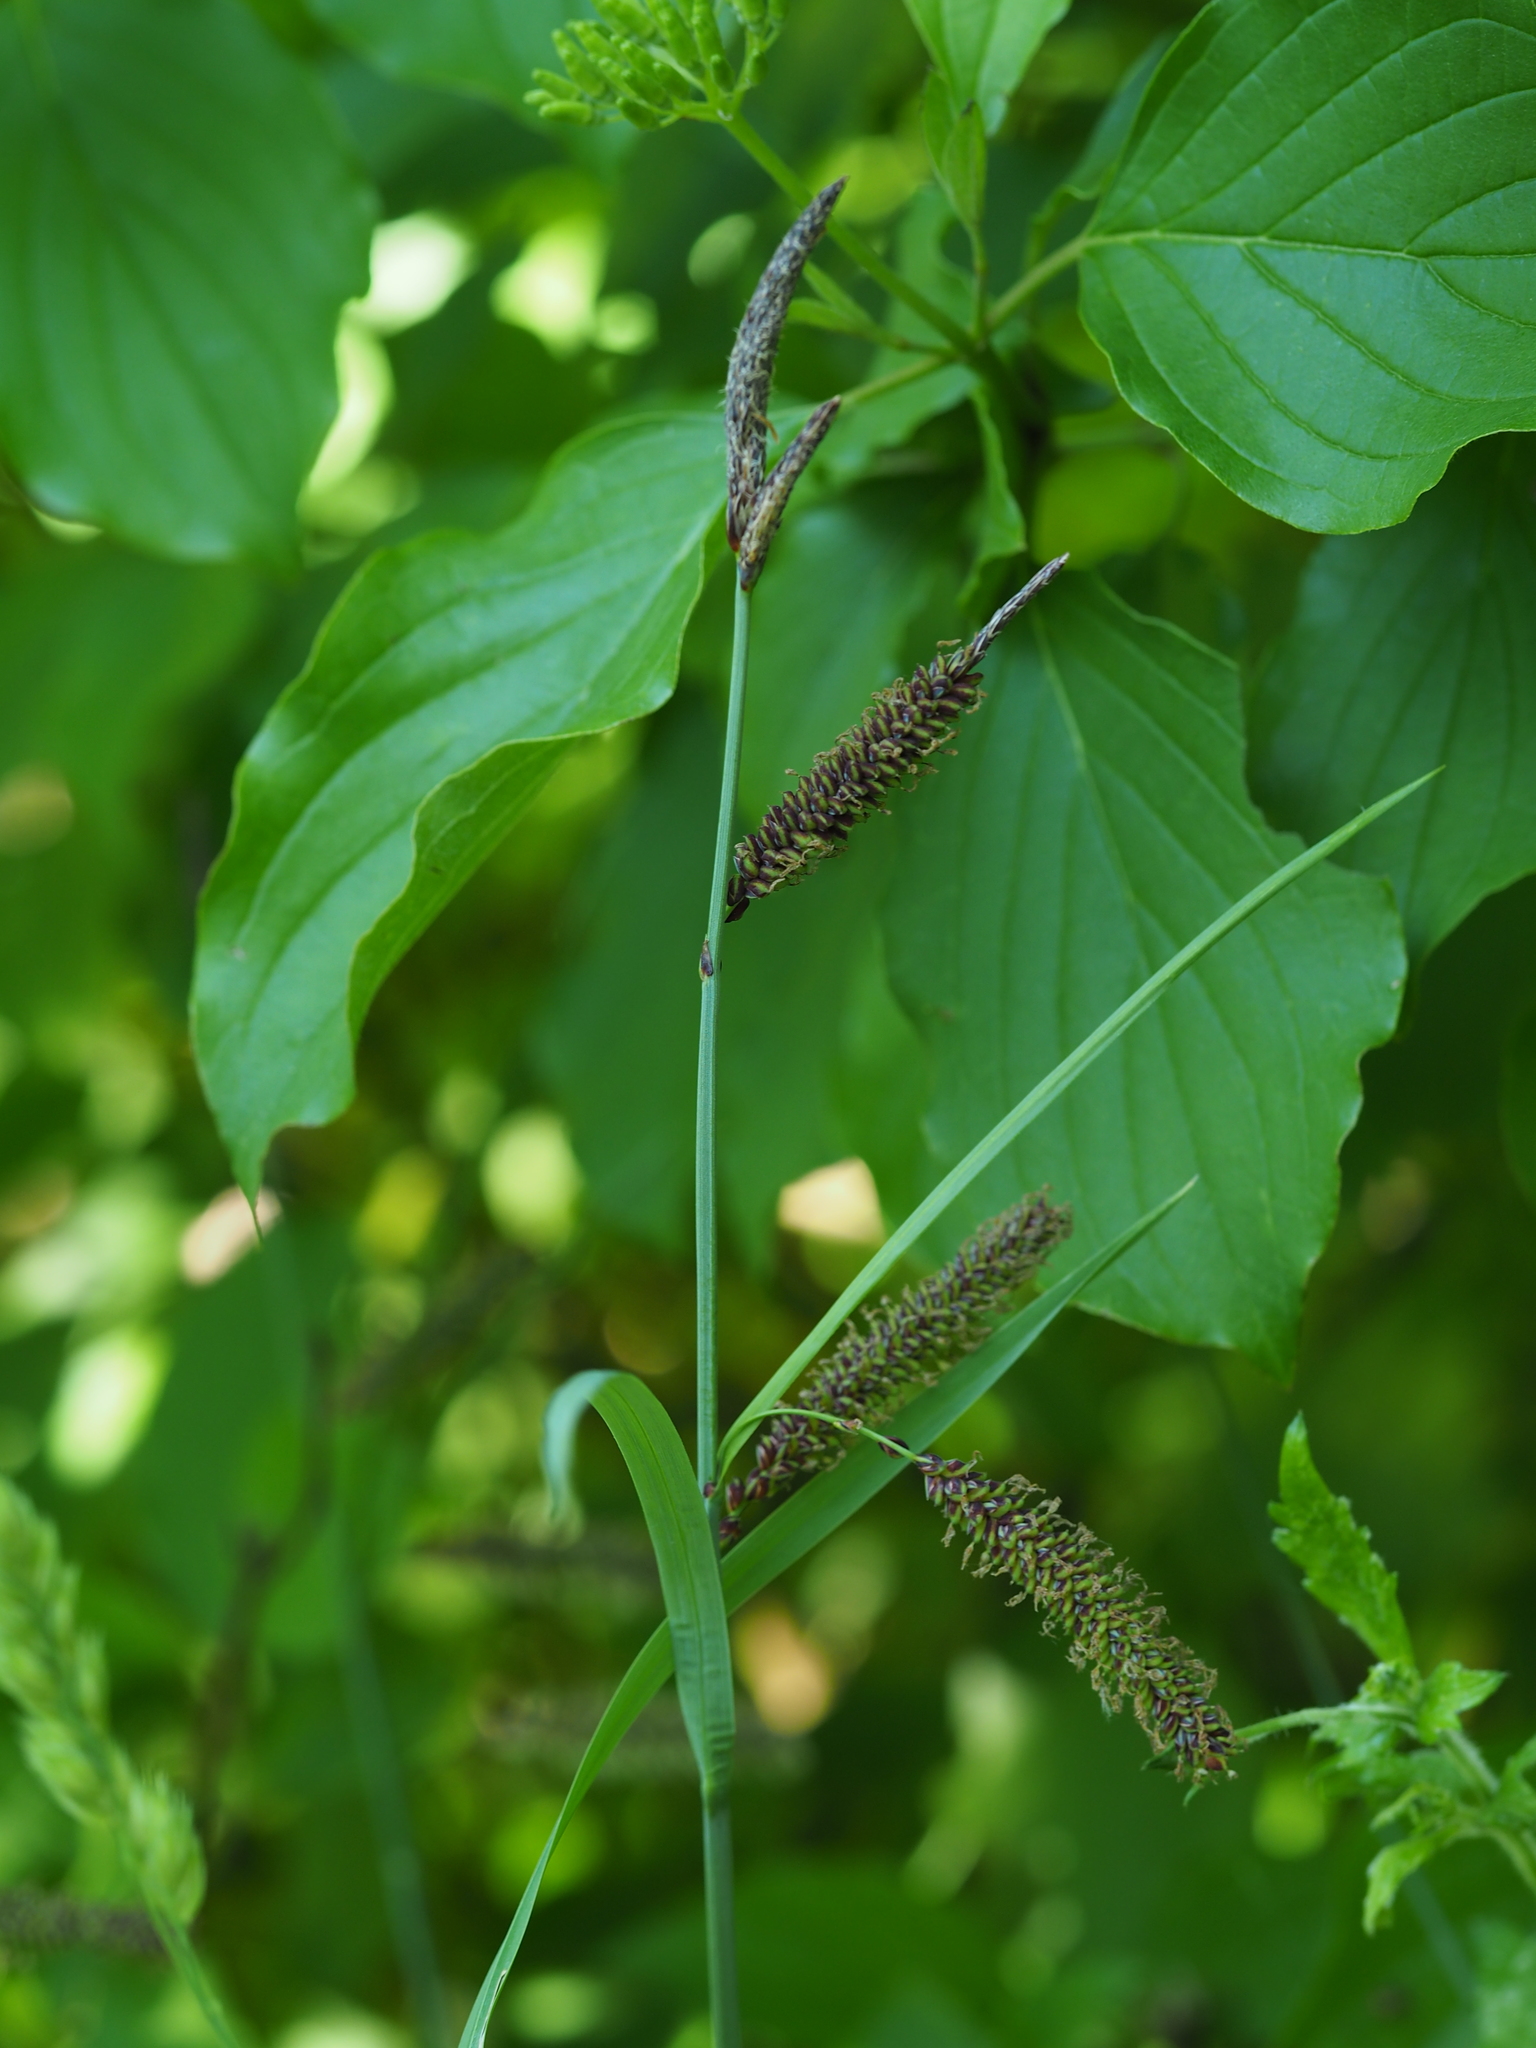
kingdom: Plantae
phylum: Tracheophyta
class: Liliopsida
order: Poales
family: Cyperaceae
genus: Carex
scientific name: Carex flacca
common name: Glaucous sedge
